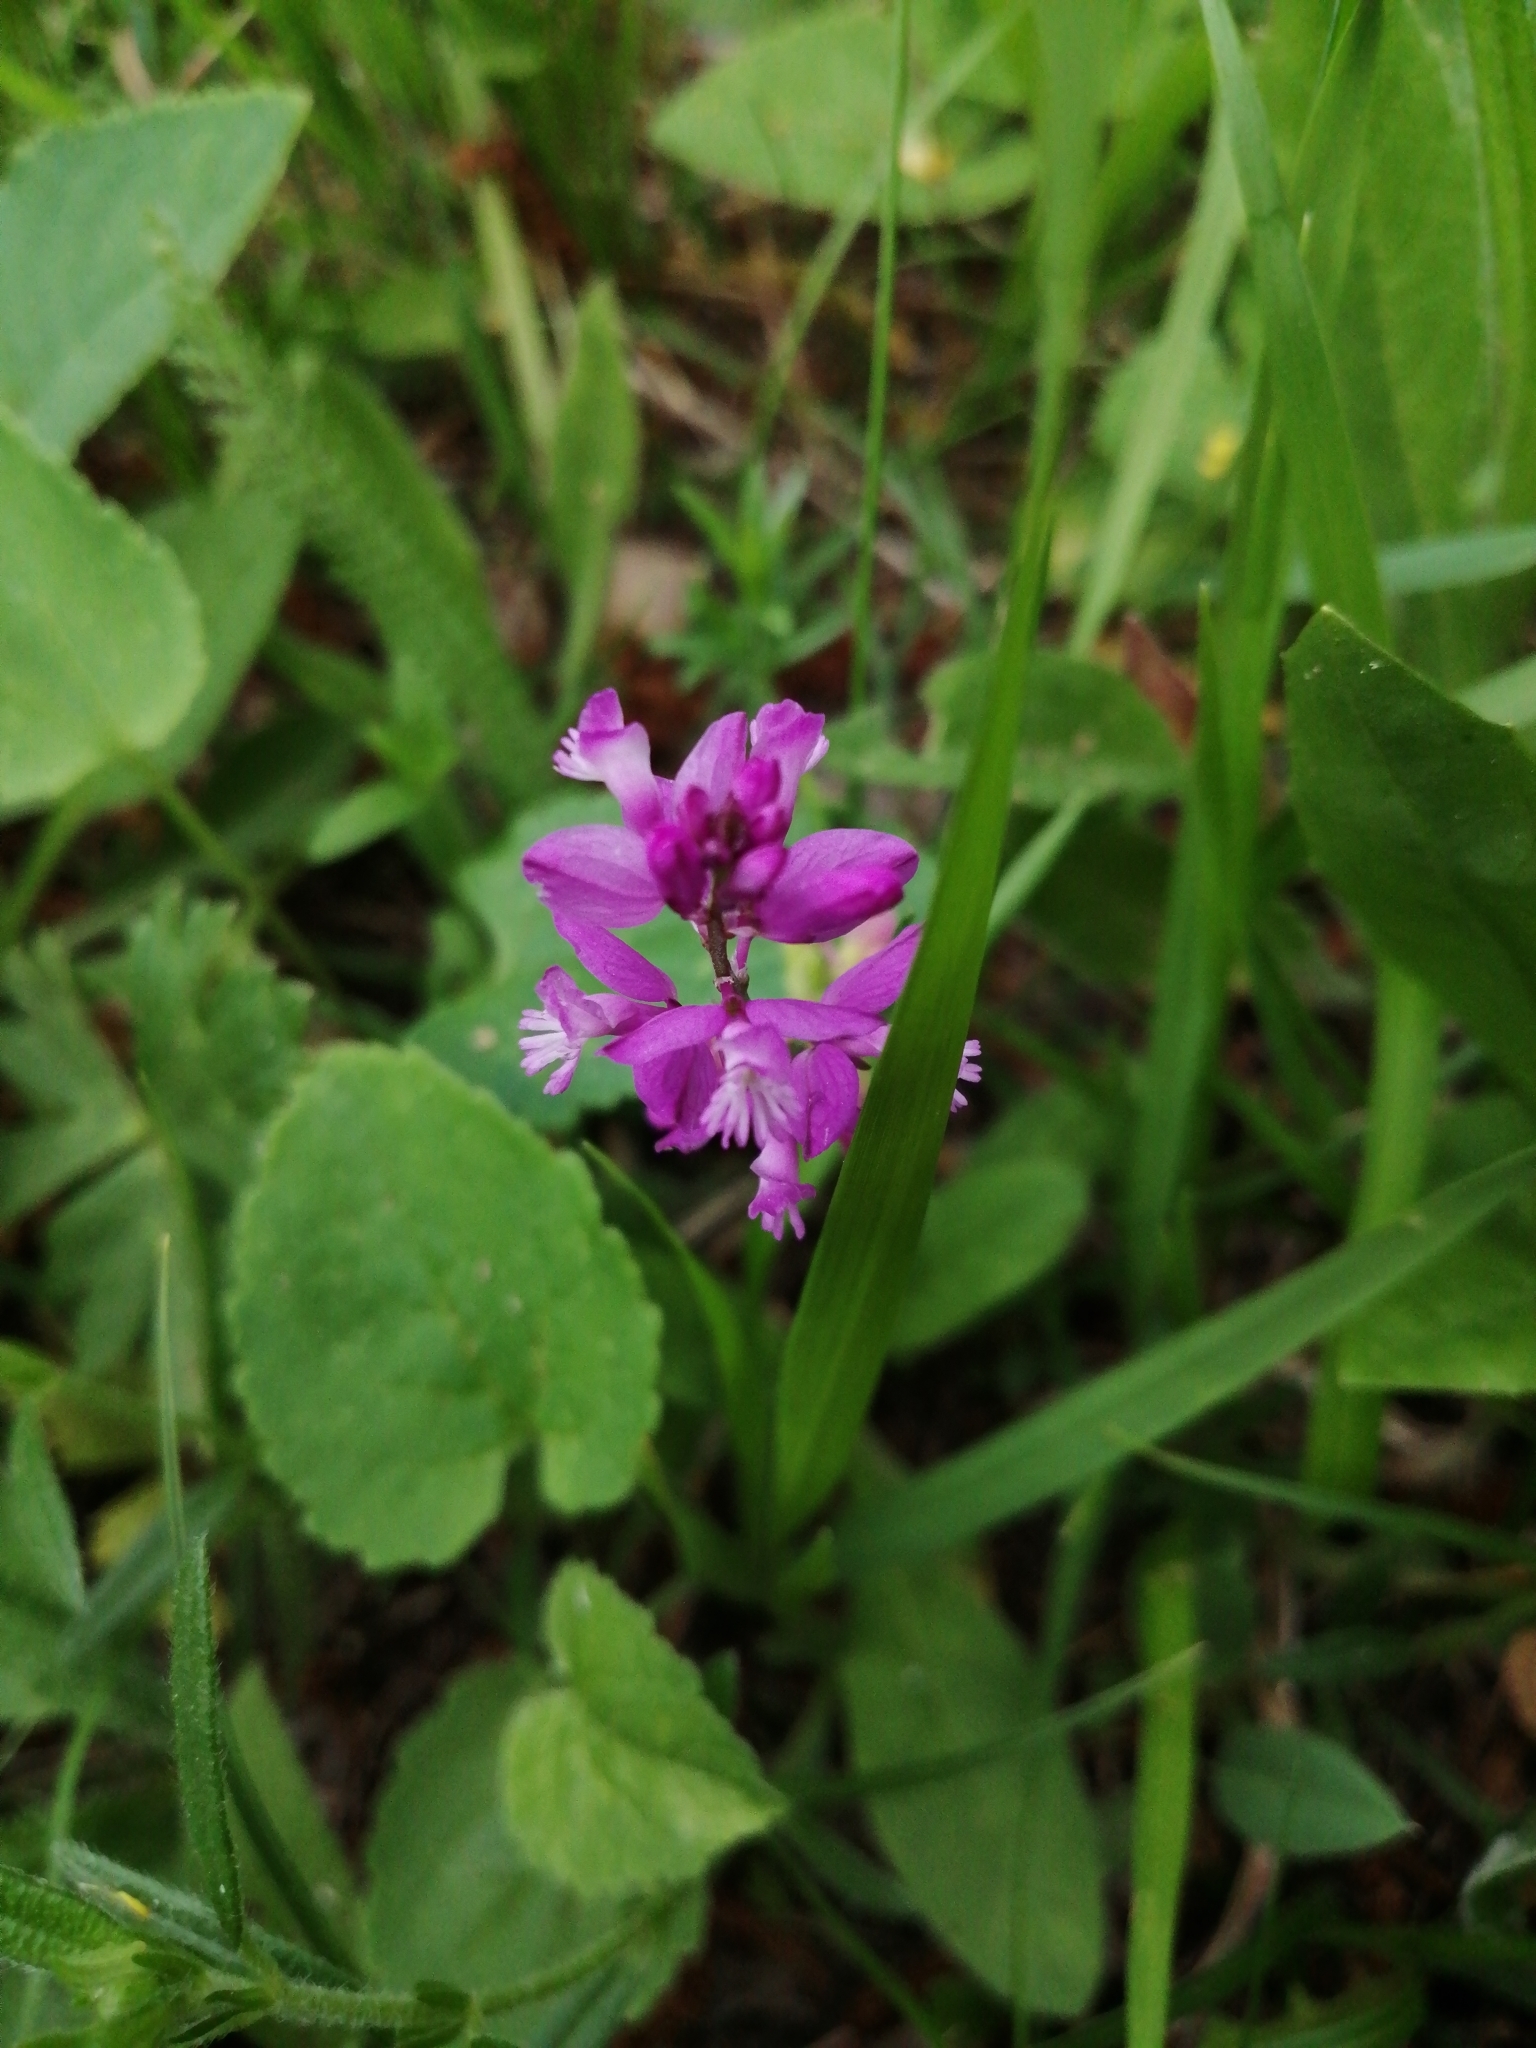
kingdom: Plantae
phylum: Tracheophyta
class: Magnoliopsida
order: Fabales
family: Polygalaceae
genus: Polygala
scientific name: Polygala nicaeensis
